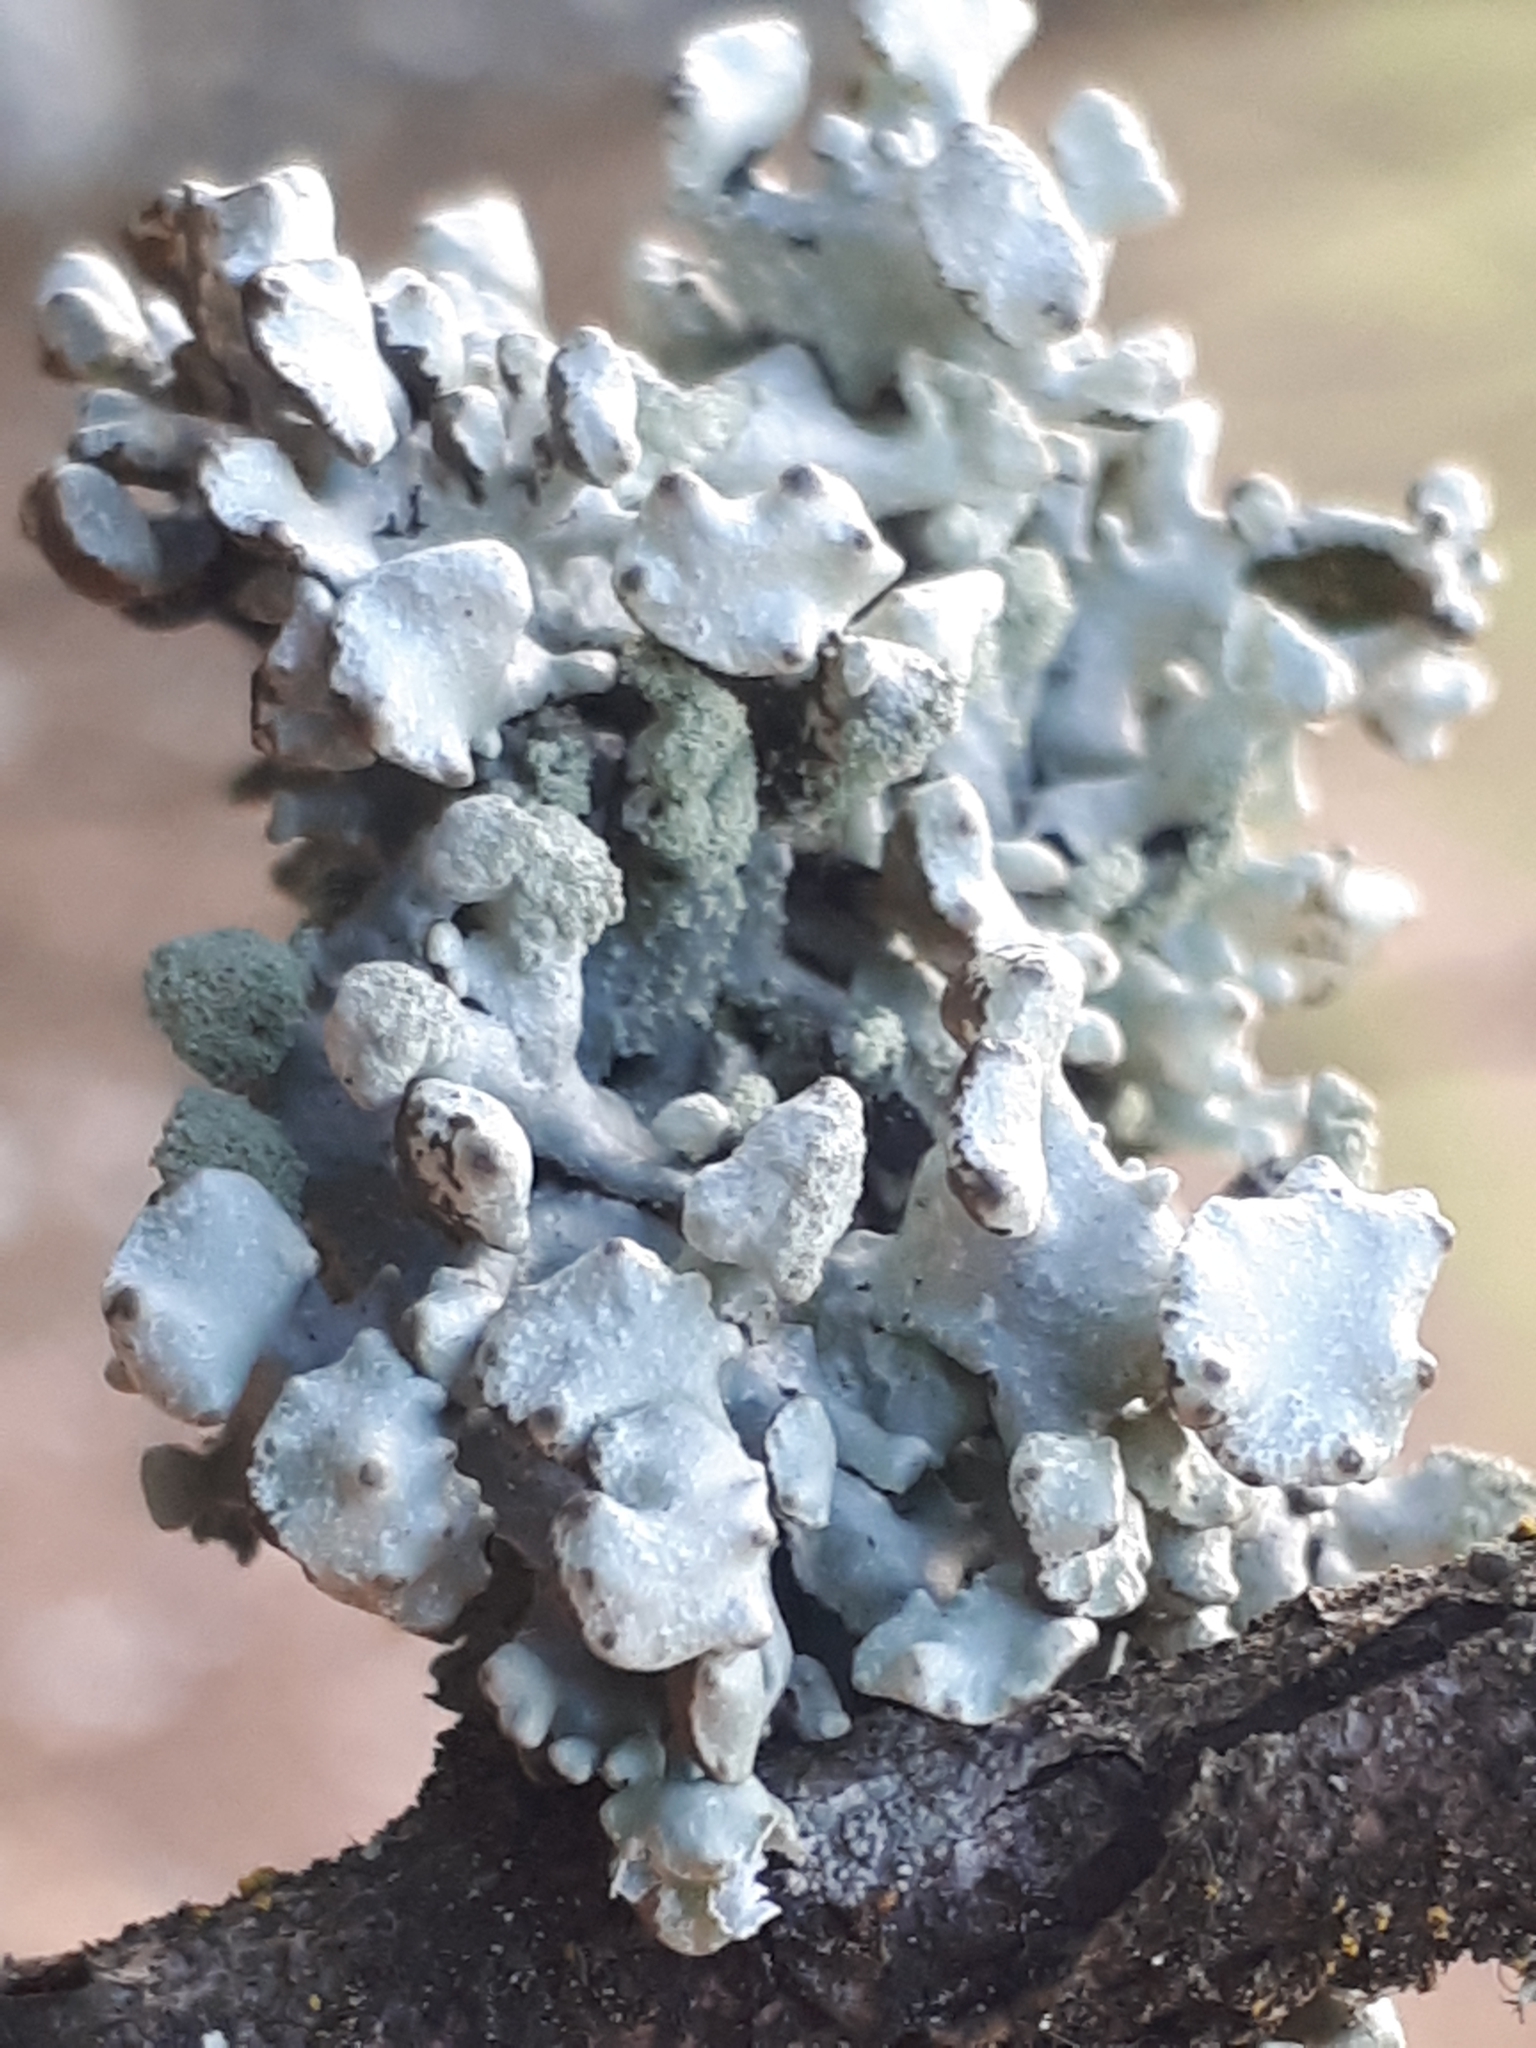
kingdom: Fungi
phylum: Ascomycota
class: Lecanoromycetes
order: Lecanorales
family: Parmeliaceae
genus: Hypogymnia
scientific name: Hypogymnia tubulosa
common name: Powder-headed tube lichen
